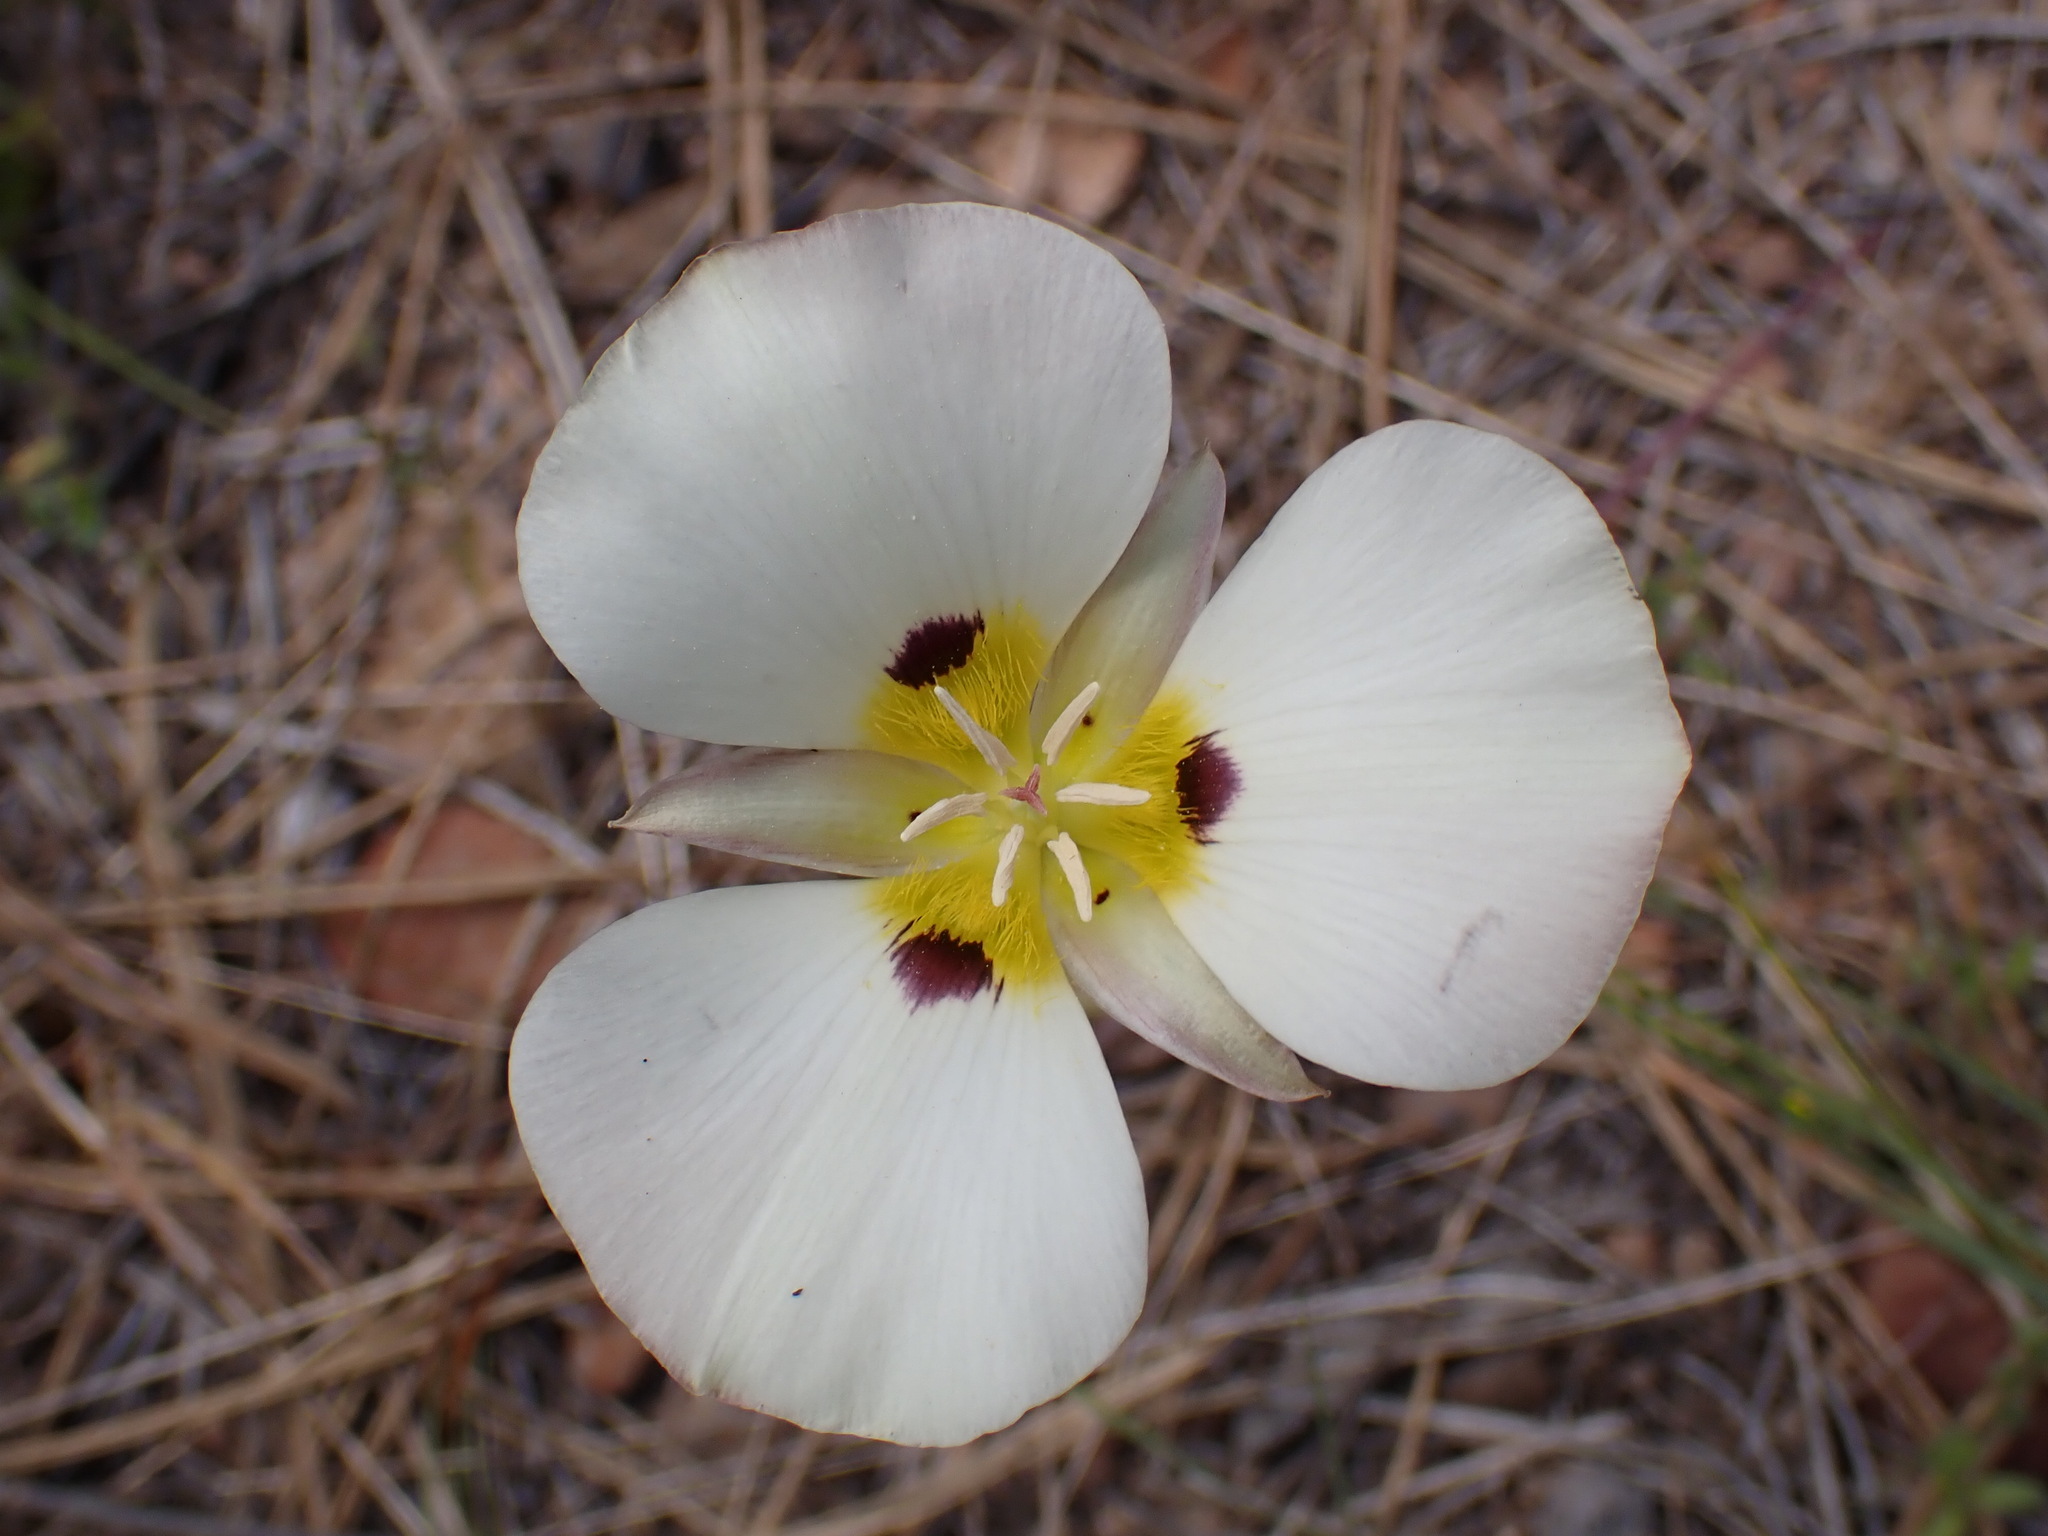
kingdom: Plantae
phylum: Tracheophyta
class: Liliopsida
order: Liliales
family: Liliaceae
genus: Calochortus
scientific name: Calochortus leichtlinii
